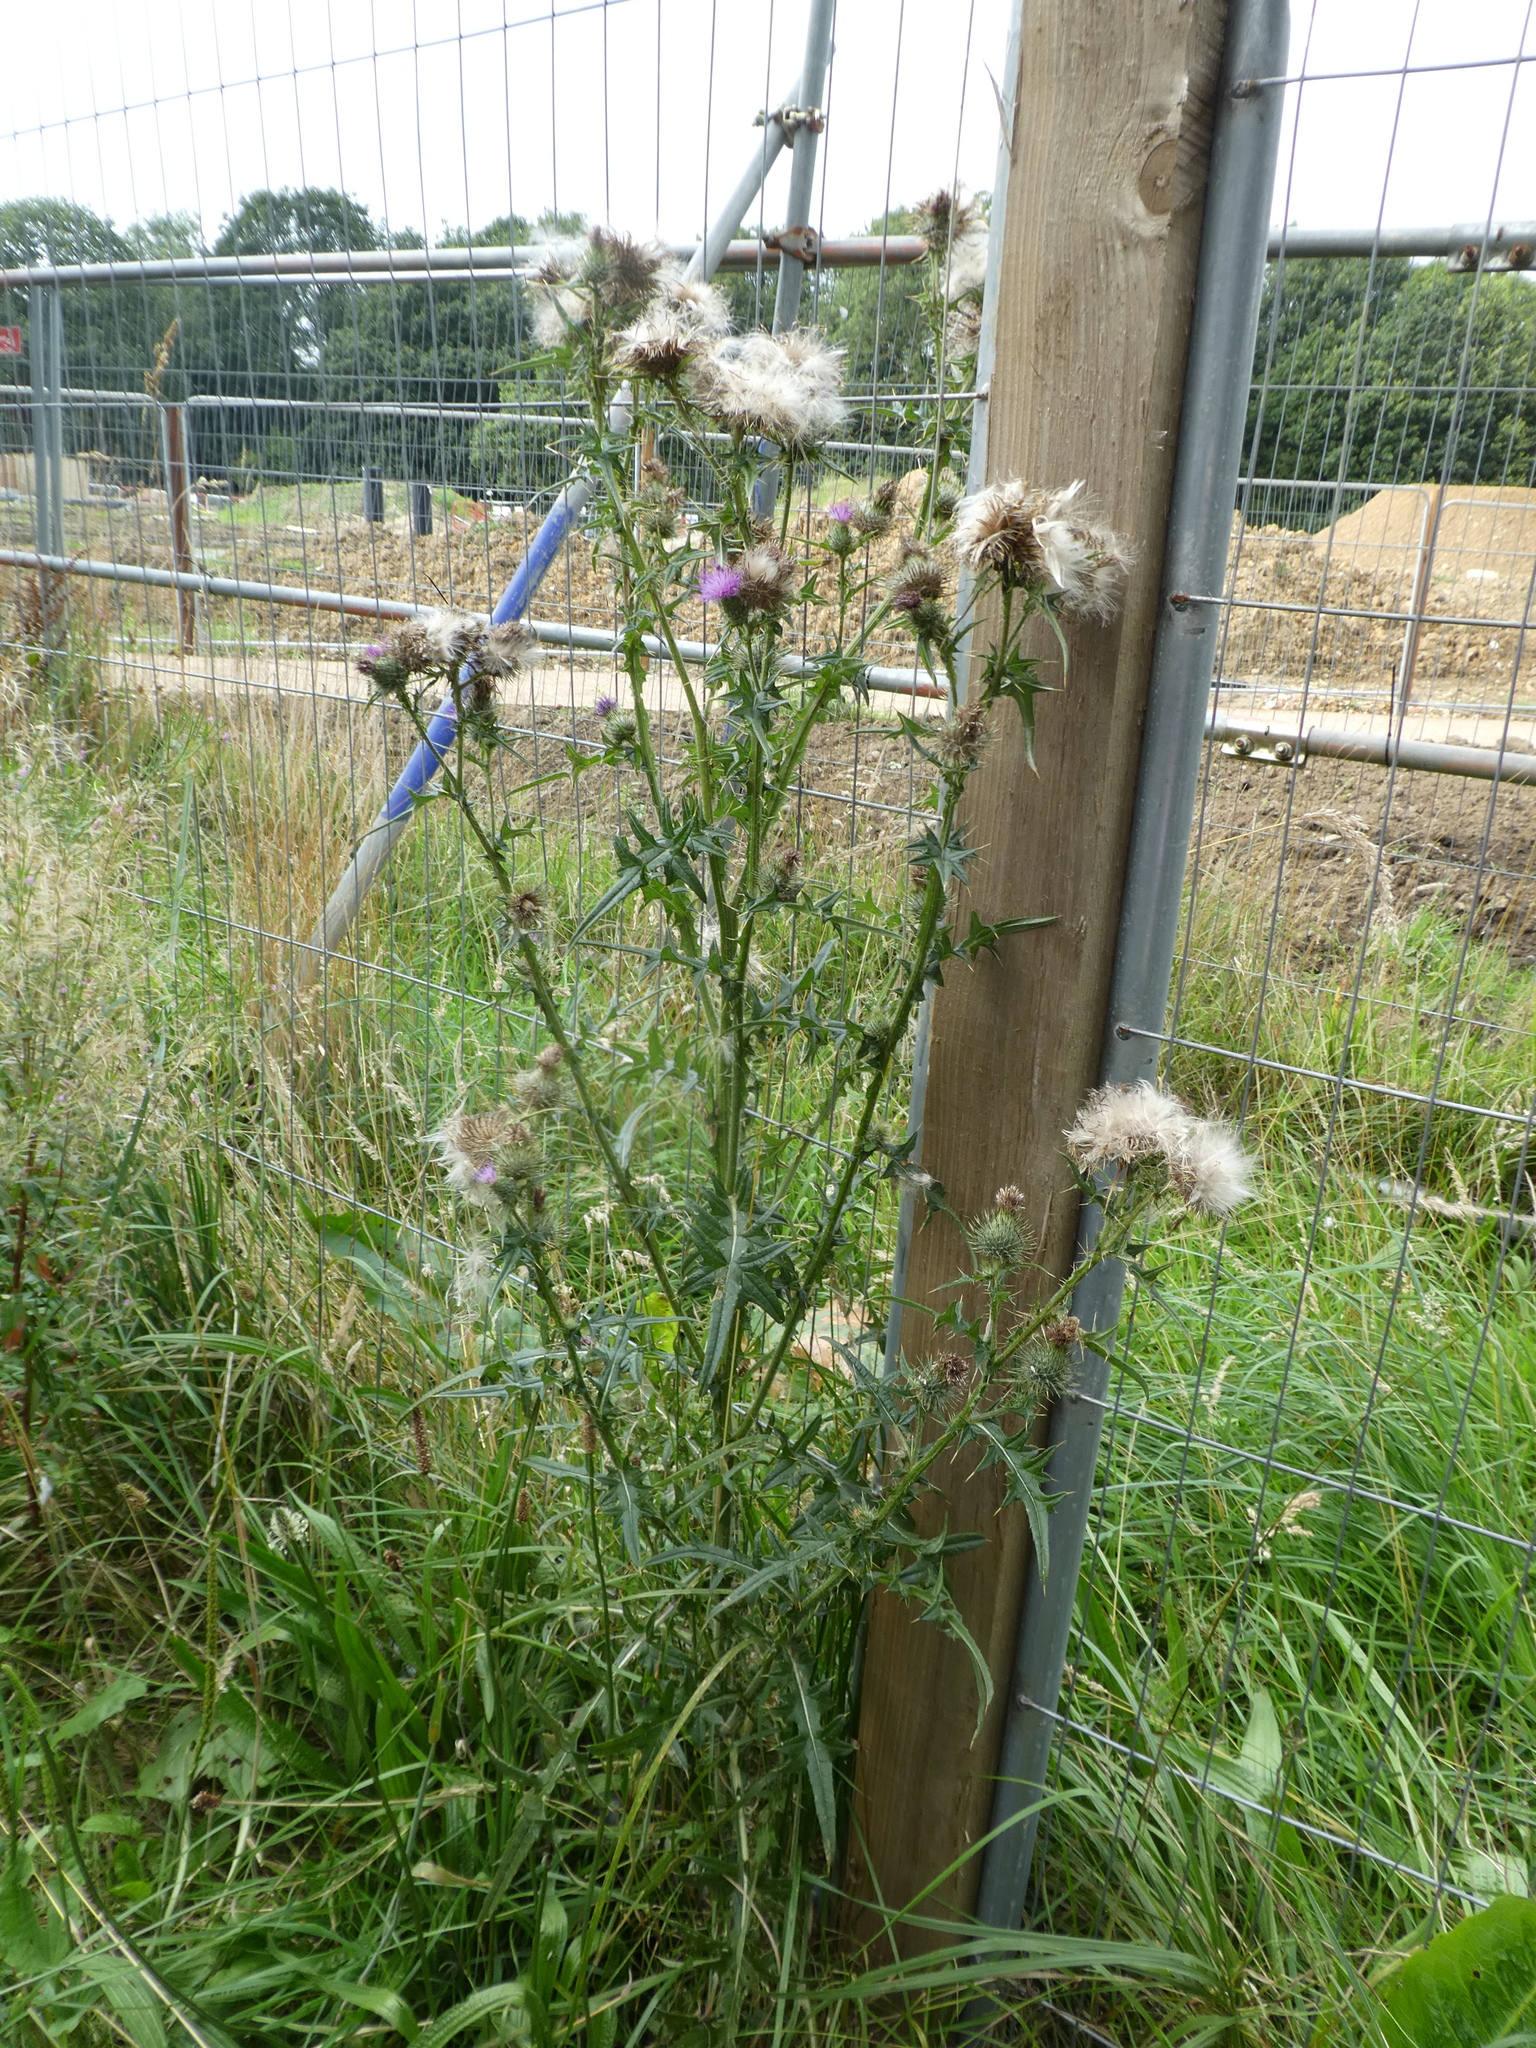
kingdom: Plantae
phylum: Tracheophyta
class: Magnoliopsida
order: Asterales
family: Asteraceae
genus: Cirsium
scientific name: Cirsium vulgare
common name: Bull thistle
